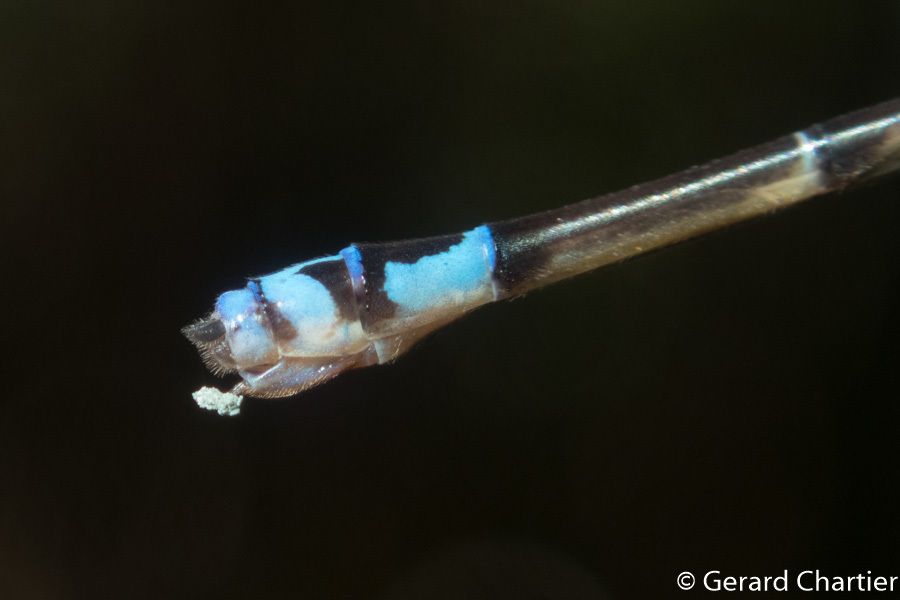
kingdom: Animalia
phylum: Arthropoda
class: Insecta
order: Odonata
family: Coenagrionidae
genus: Archibasis
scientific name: Archibasis viola
